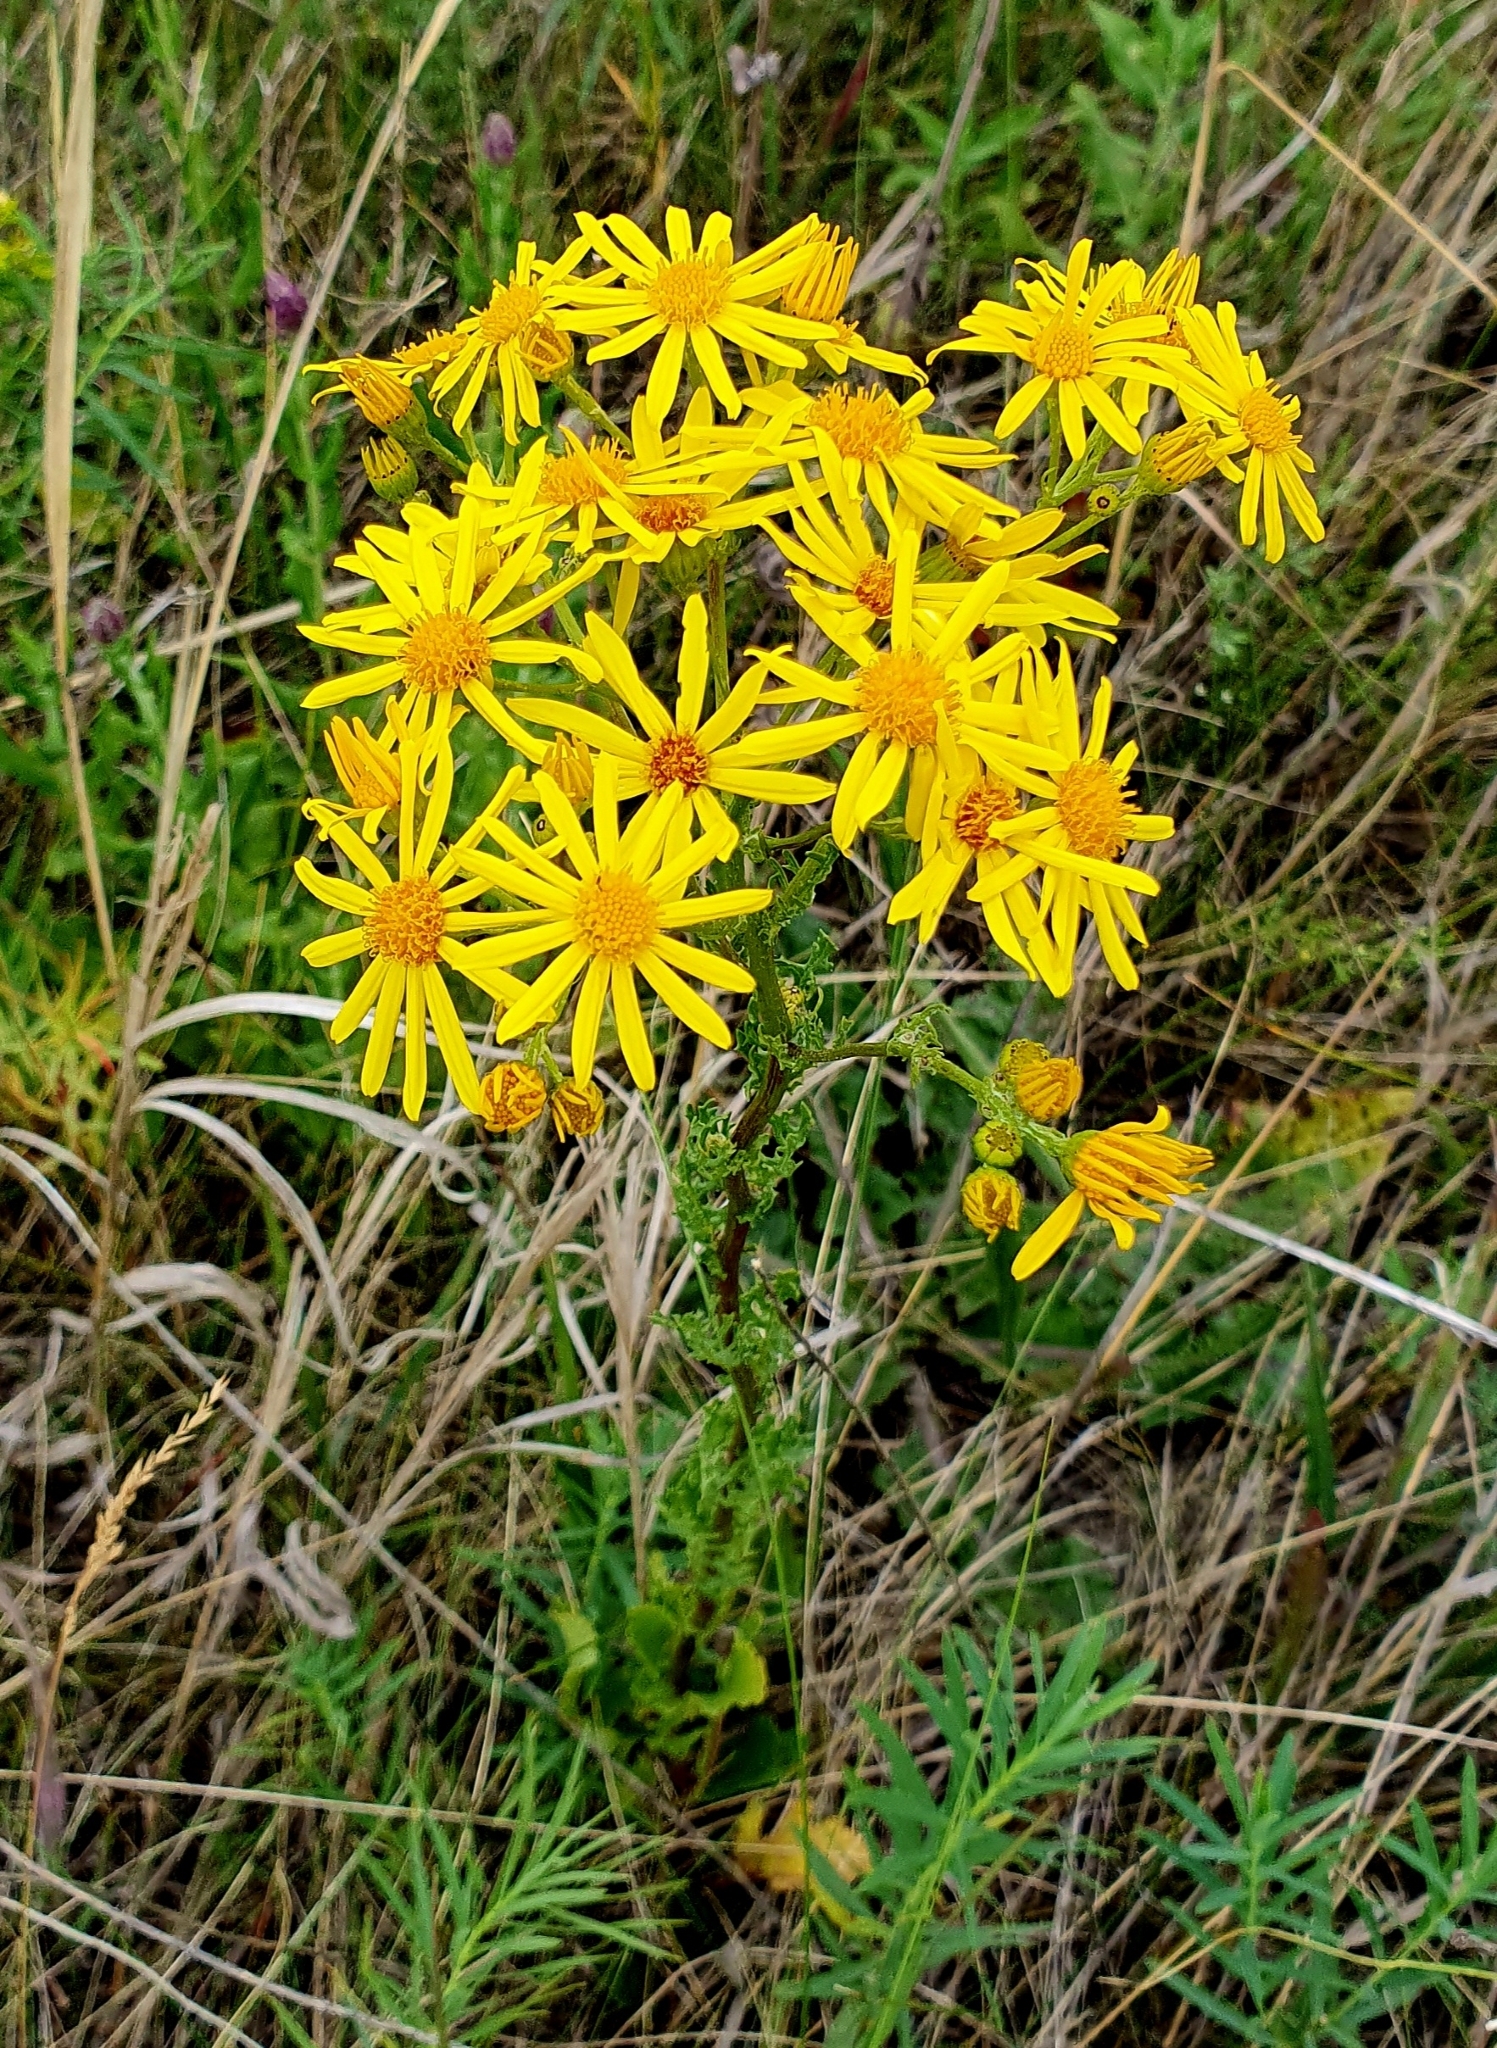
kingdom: Plantae
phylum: Tracheophyta
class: Magnoliopsida
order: Asterales
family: Asteraceae
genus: Jacobaea
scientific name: Jacobaea vulgaris
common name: Stinking willie
